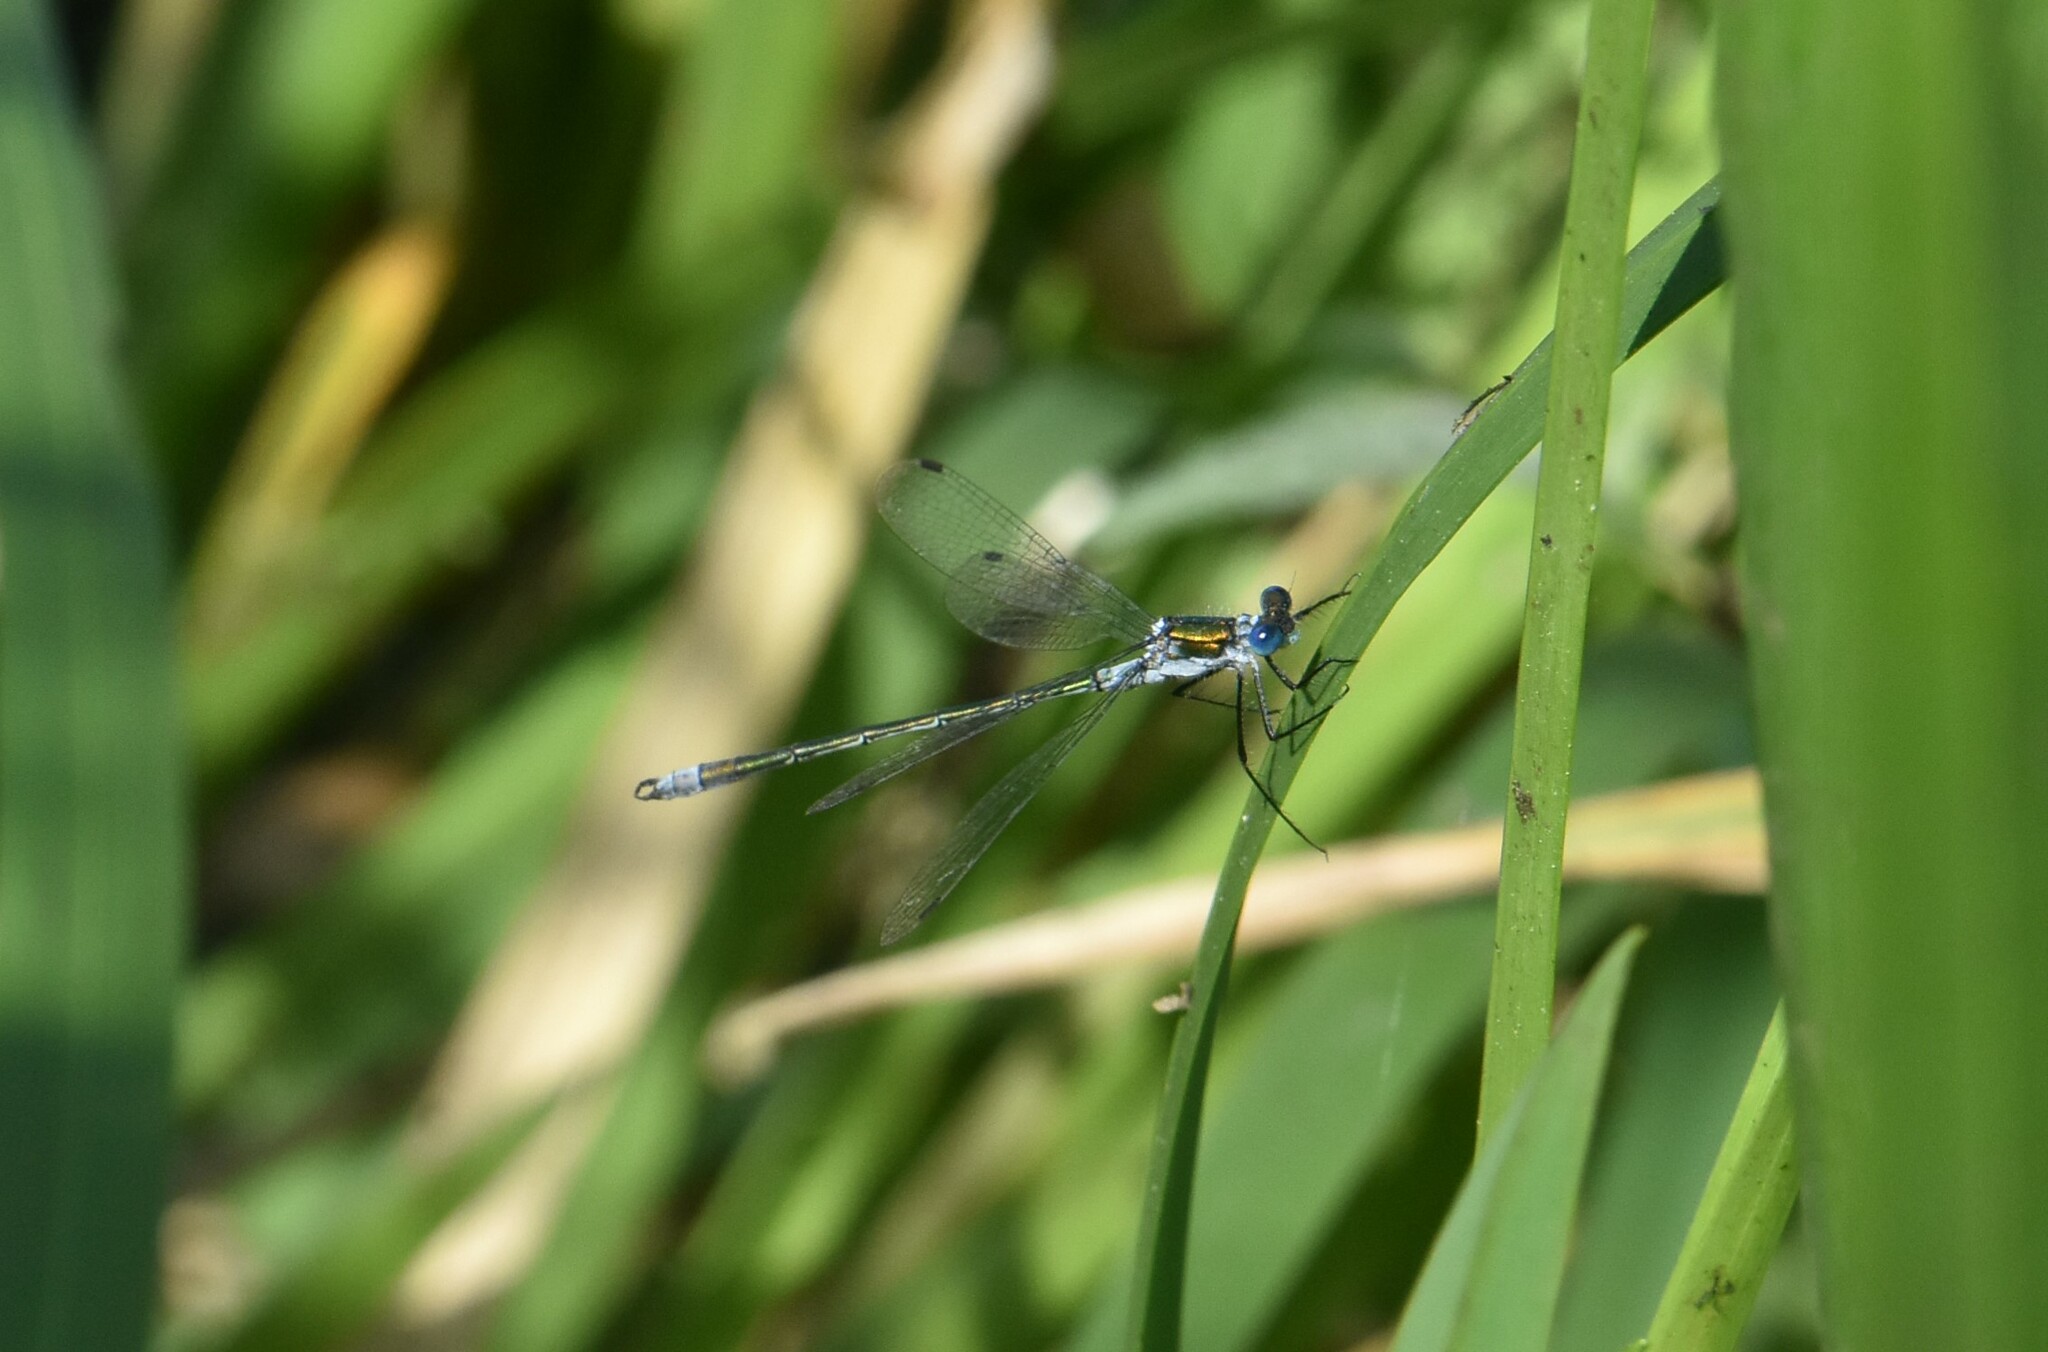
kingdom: Animalia
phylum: Arthropoda
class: Insecta
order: Odonata
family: Lestidae
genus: Lestes
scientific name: Lestes sponsa
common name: Common spreadwing
